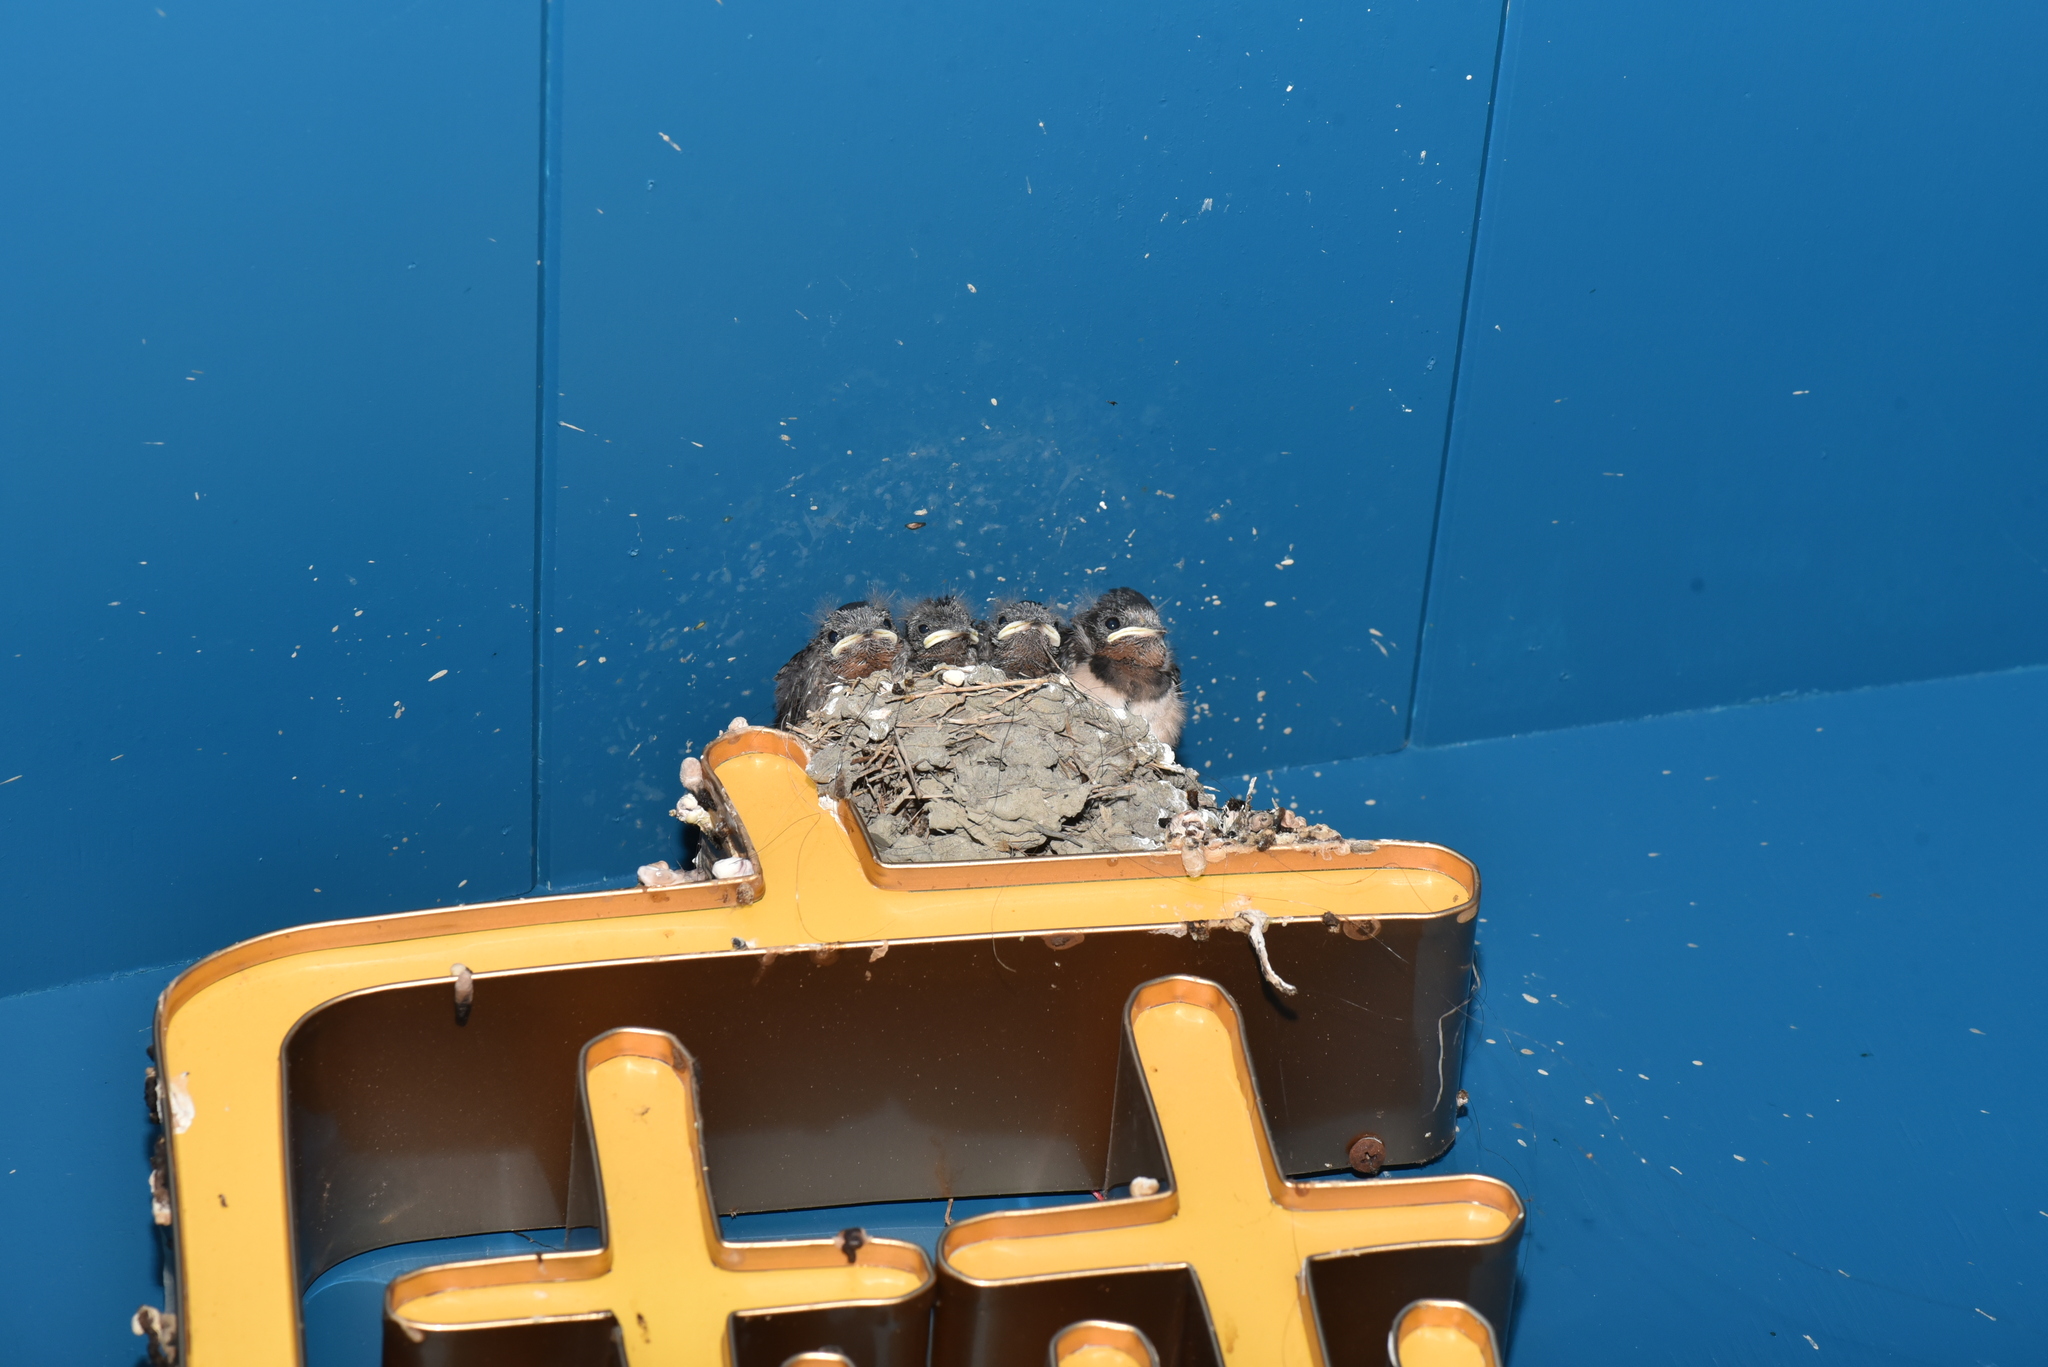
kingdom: Animalia
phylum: Chordata
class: Aves
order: Passeriformes
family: Hirundinidae
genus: Hirundo
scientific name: Hirundo rustica
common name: Barn swallow
